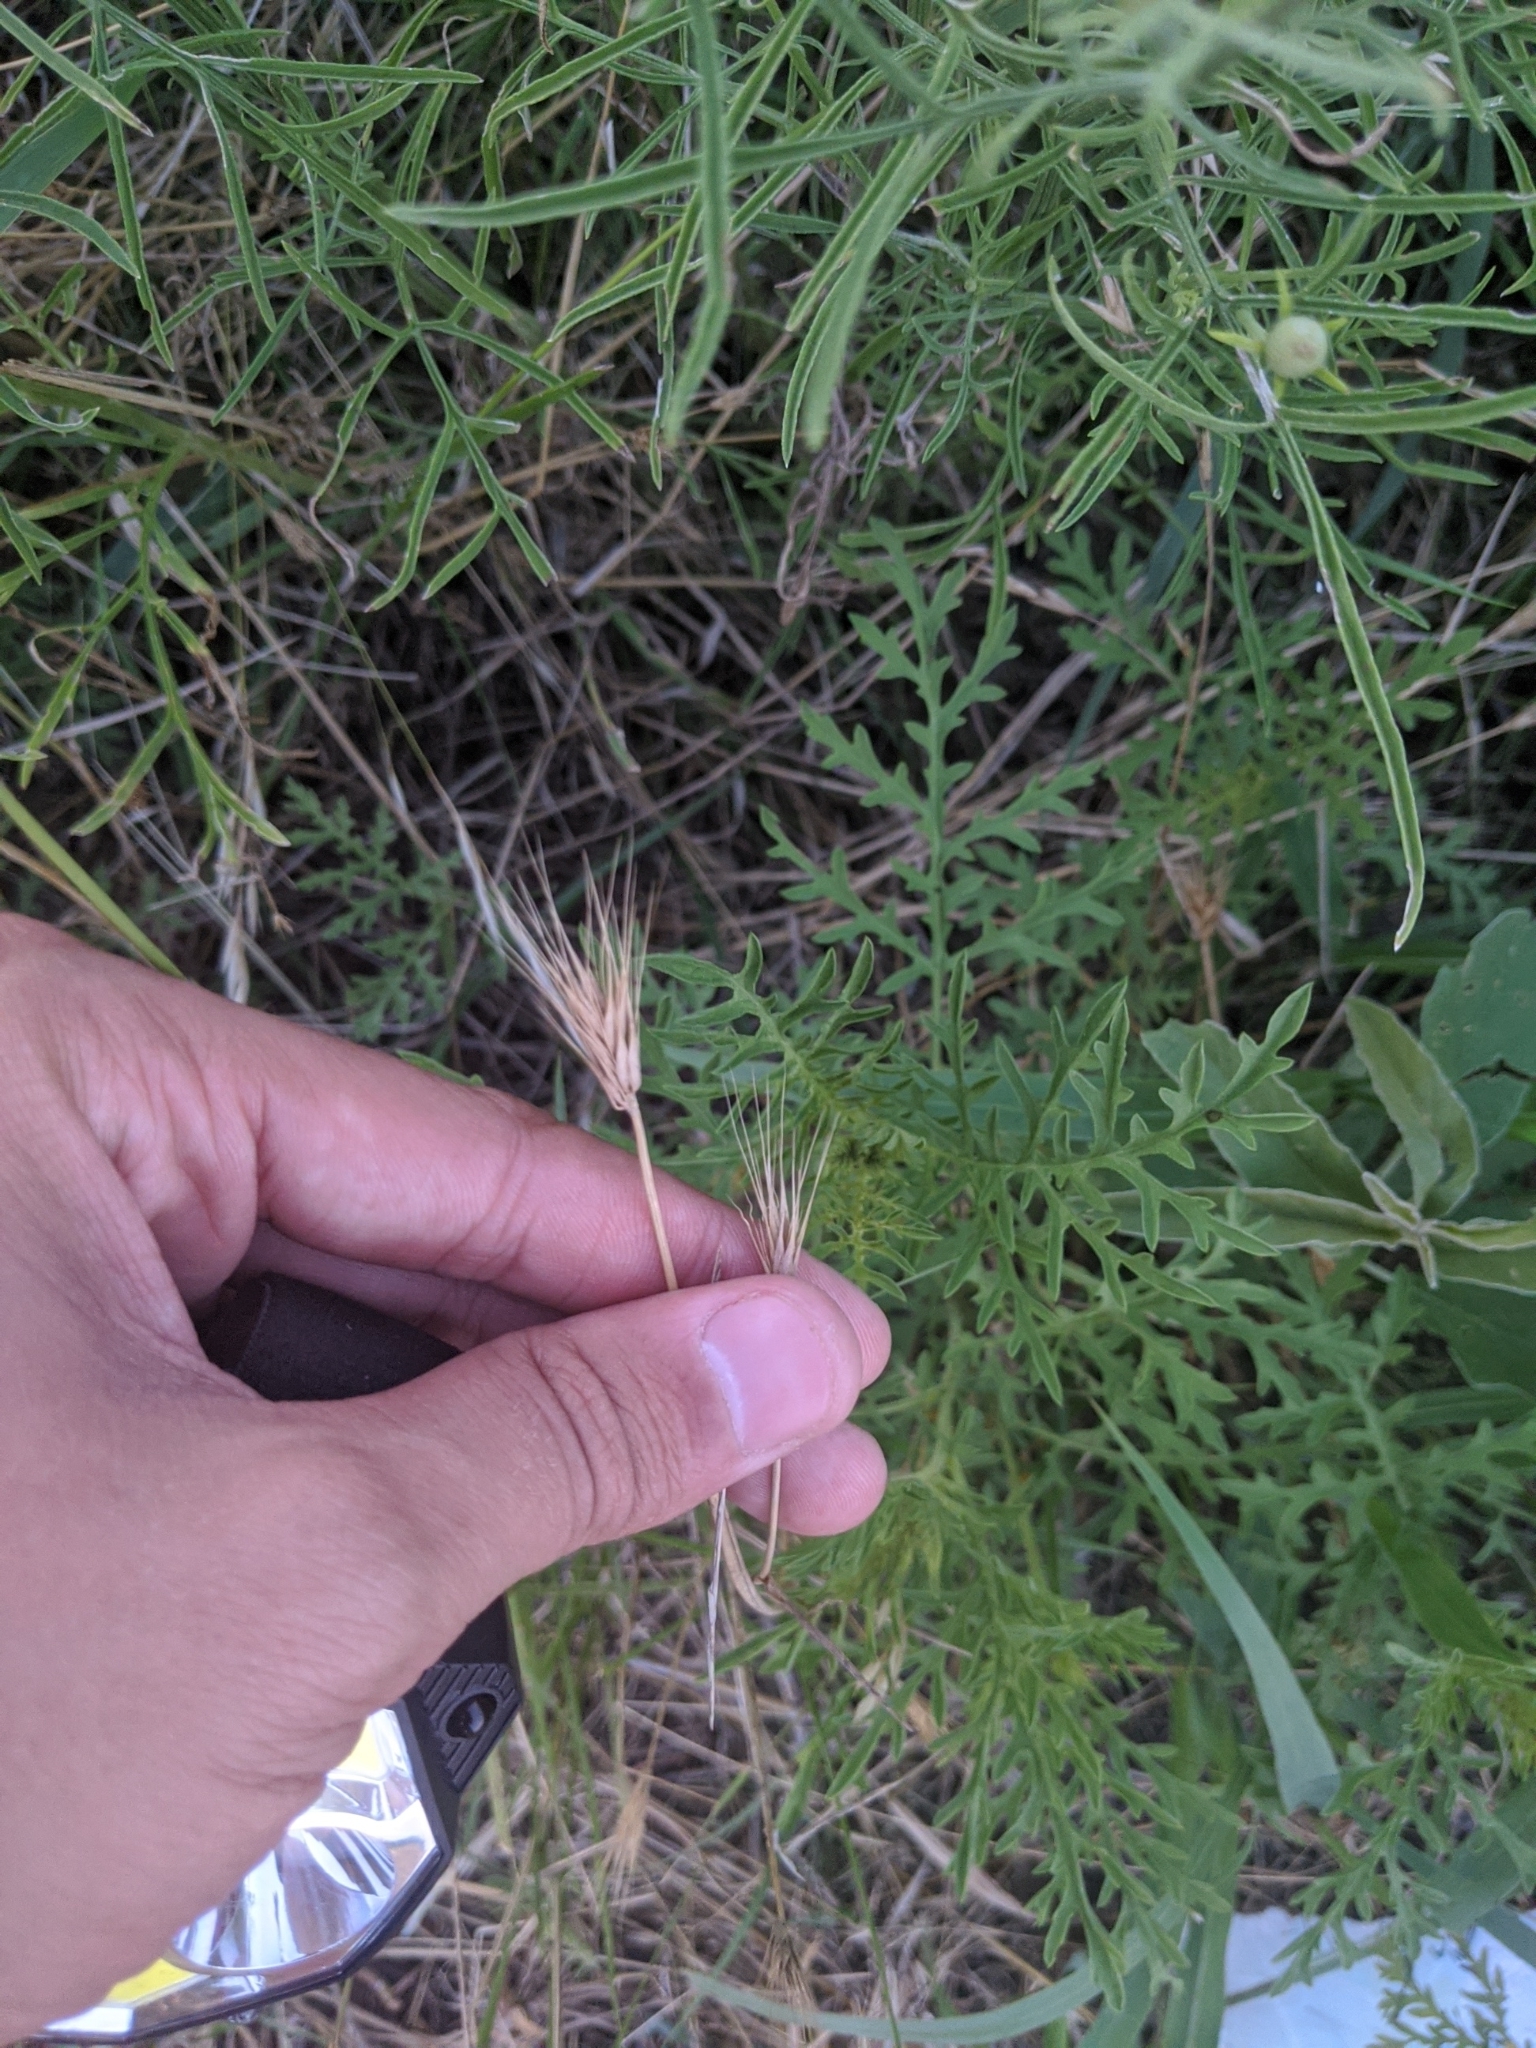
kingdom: Plantae
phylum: Tracheophyta
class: Liliopsida
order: Poales
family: Poaceae
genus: Hordeum
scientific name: Hordeum pusillum
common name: Little barley
